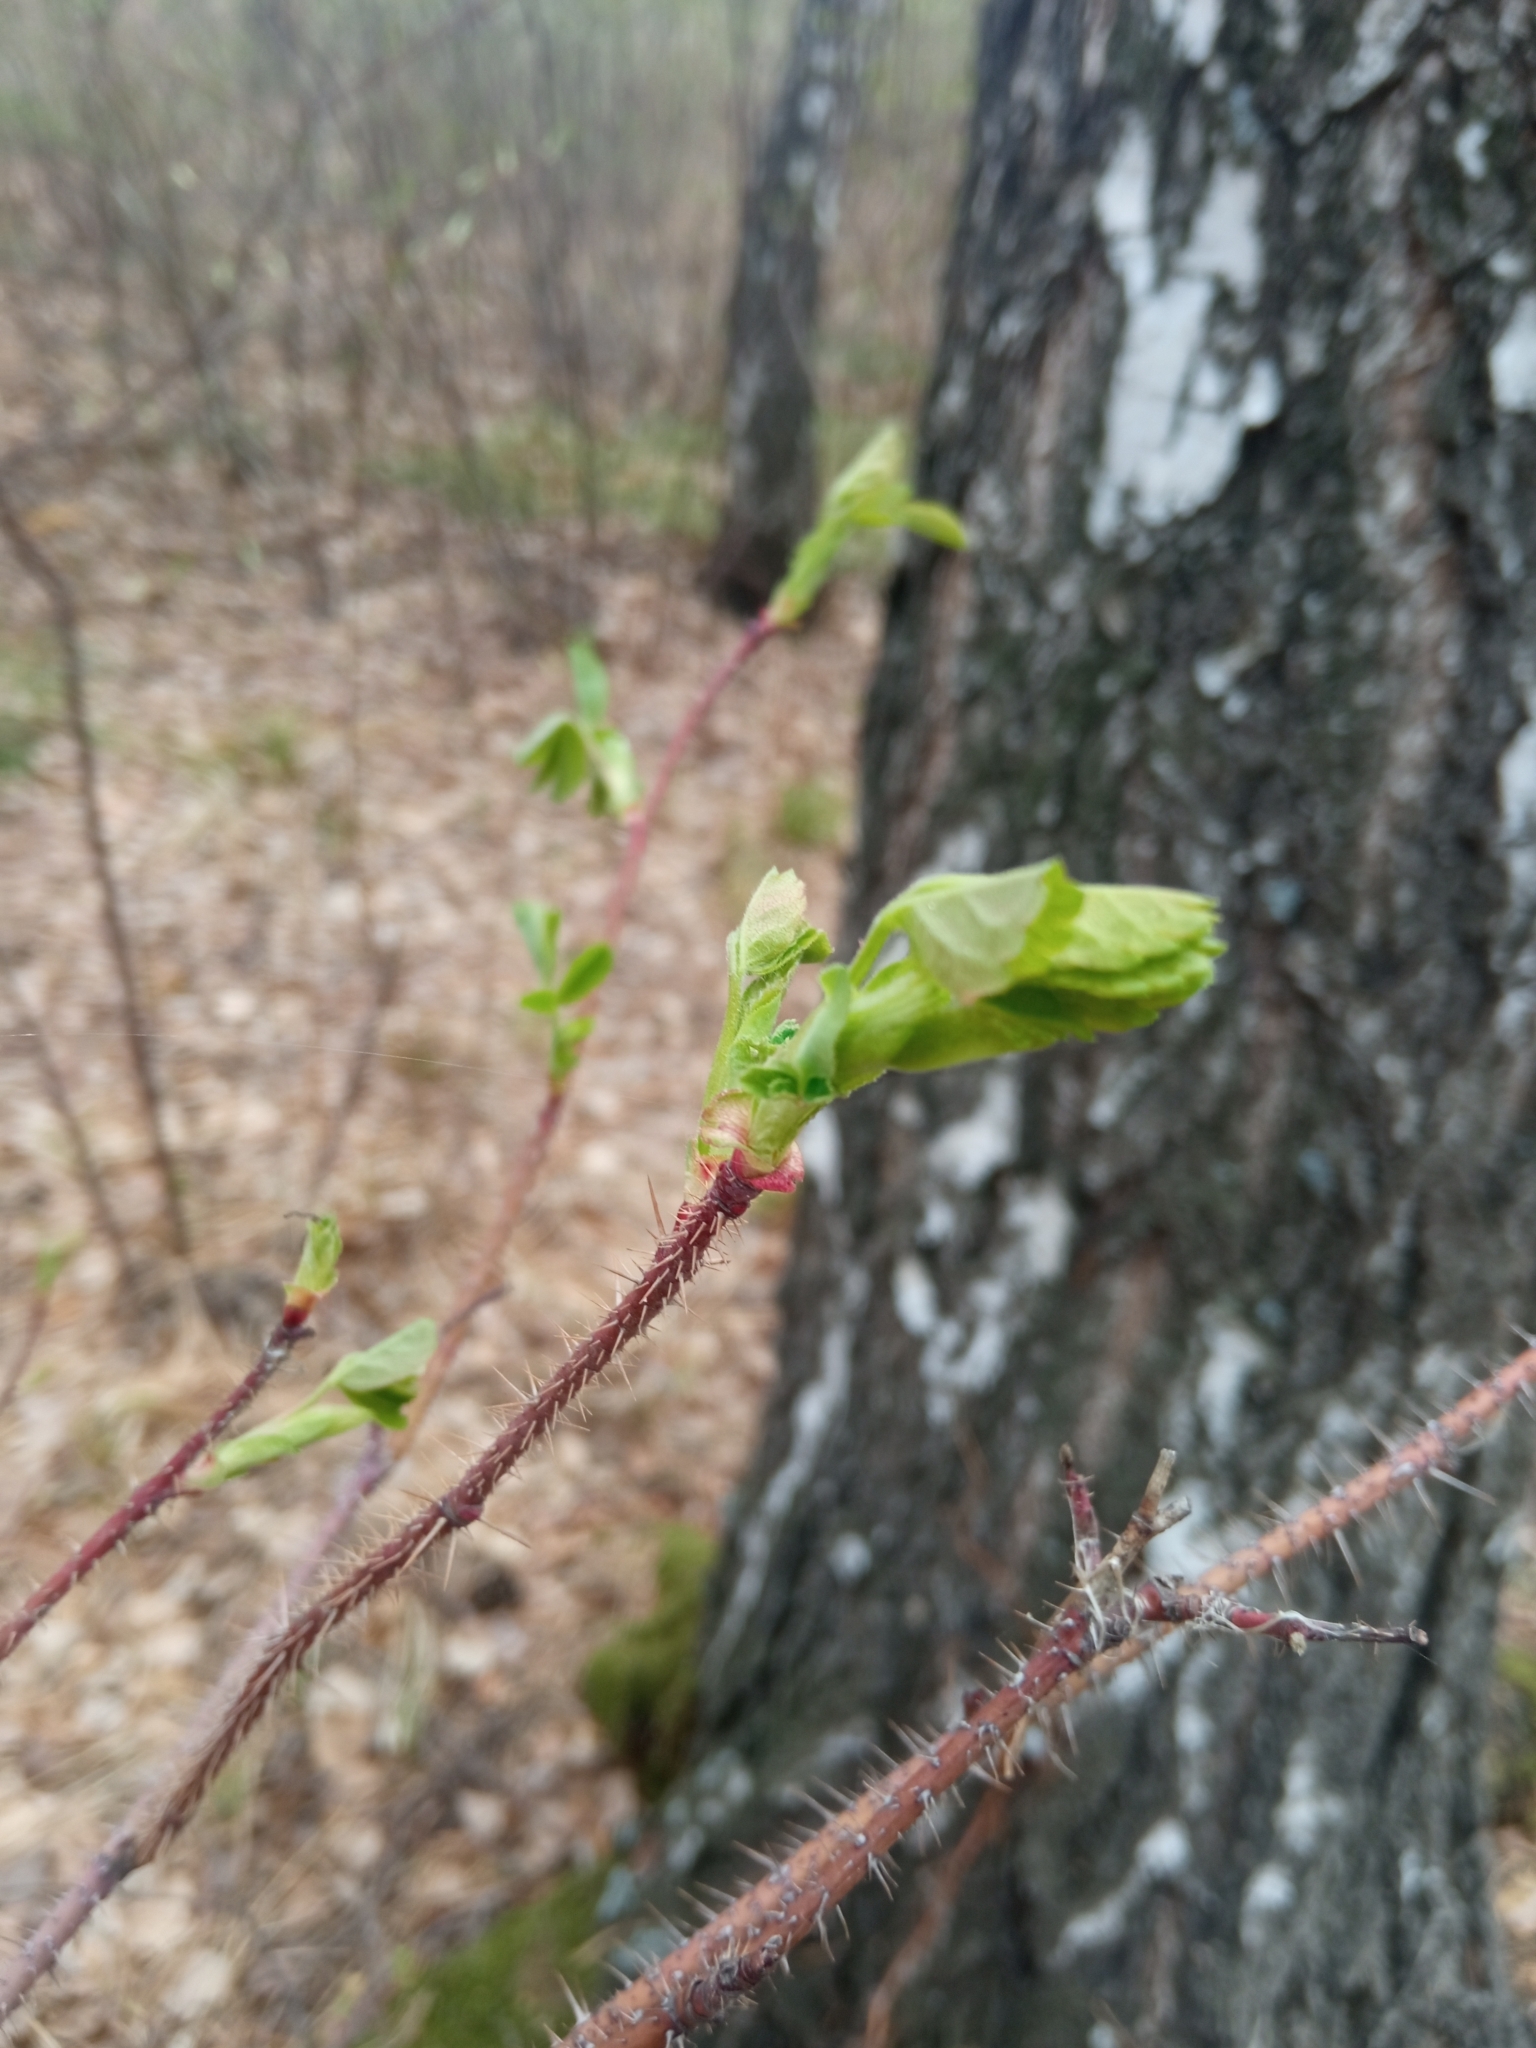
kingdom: Plantae
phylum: Tracheophyta
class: Magnoliopsida
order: Rosales
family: Rosaceae
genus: Rosa
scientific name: Rosa acicularis
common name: Prickly rose
